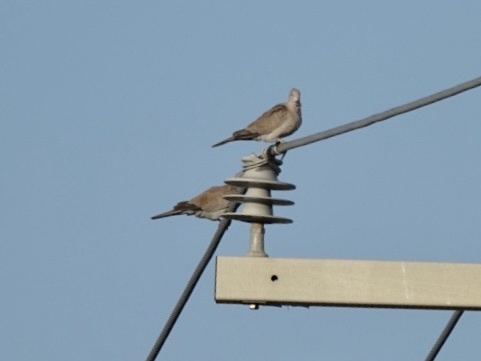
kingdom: Animalia
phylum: Chordata
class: Aves
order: Columbiformes
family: Columbidae
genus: Streptopelia
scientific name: Streptopelia decaocto
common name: Eurasian collared dove
